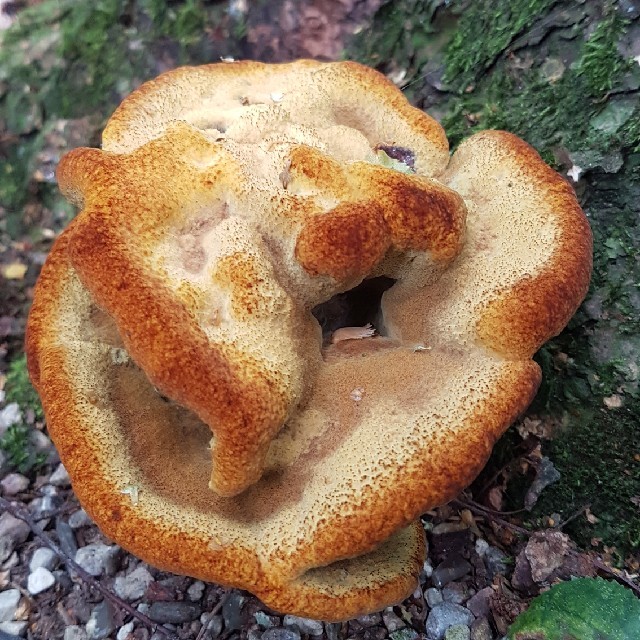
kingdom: Fungi
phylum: Basidiomycota
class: Agaricomycetes
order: Polyporales
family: Laetiporaceae
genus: Phaeolus
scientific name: Phaeolus schweinitzii
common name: Dyer's mazegill
